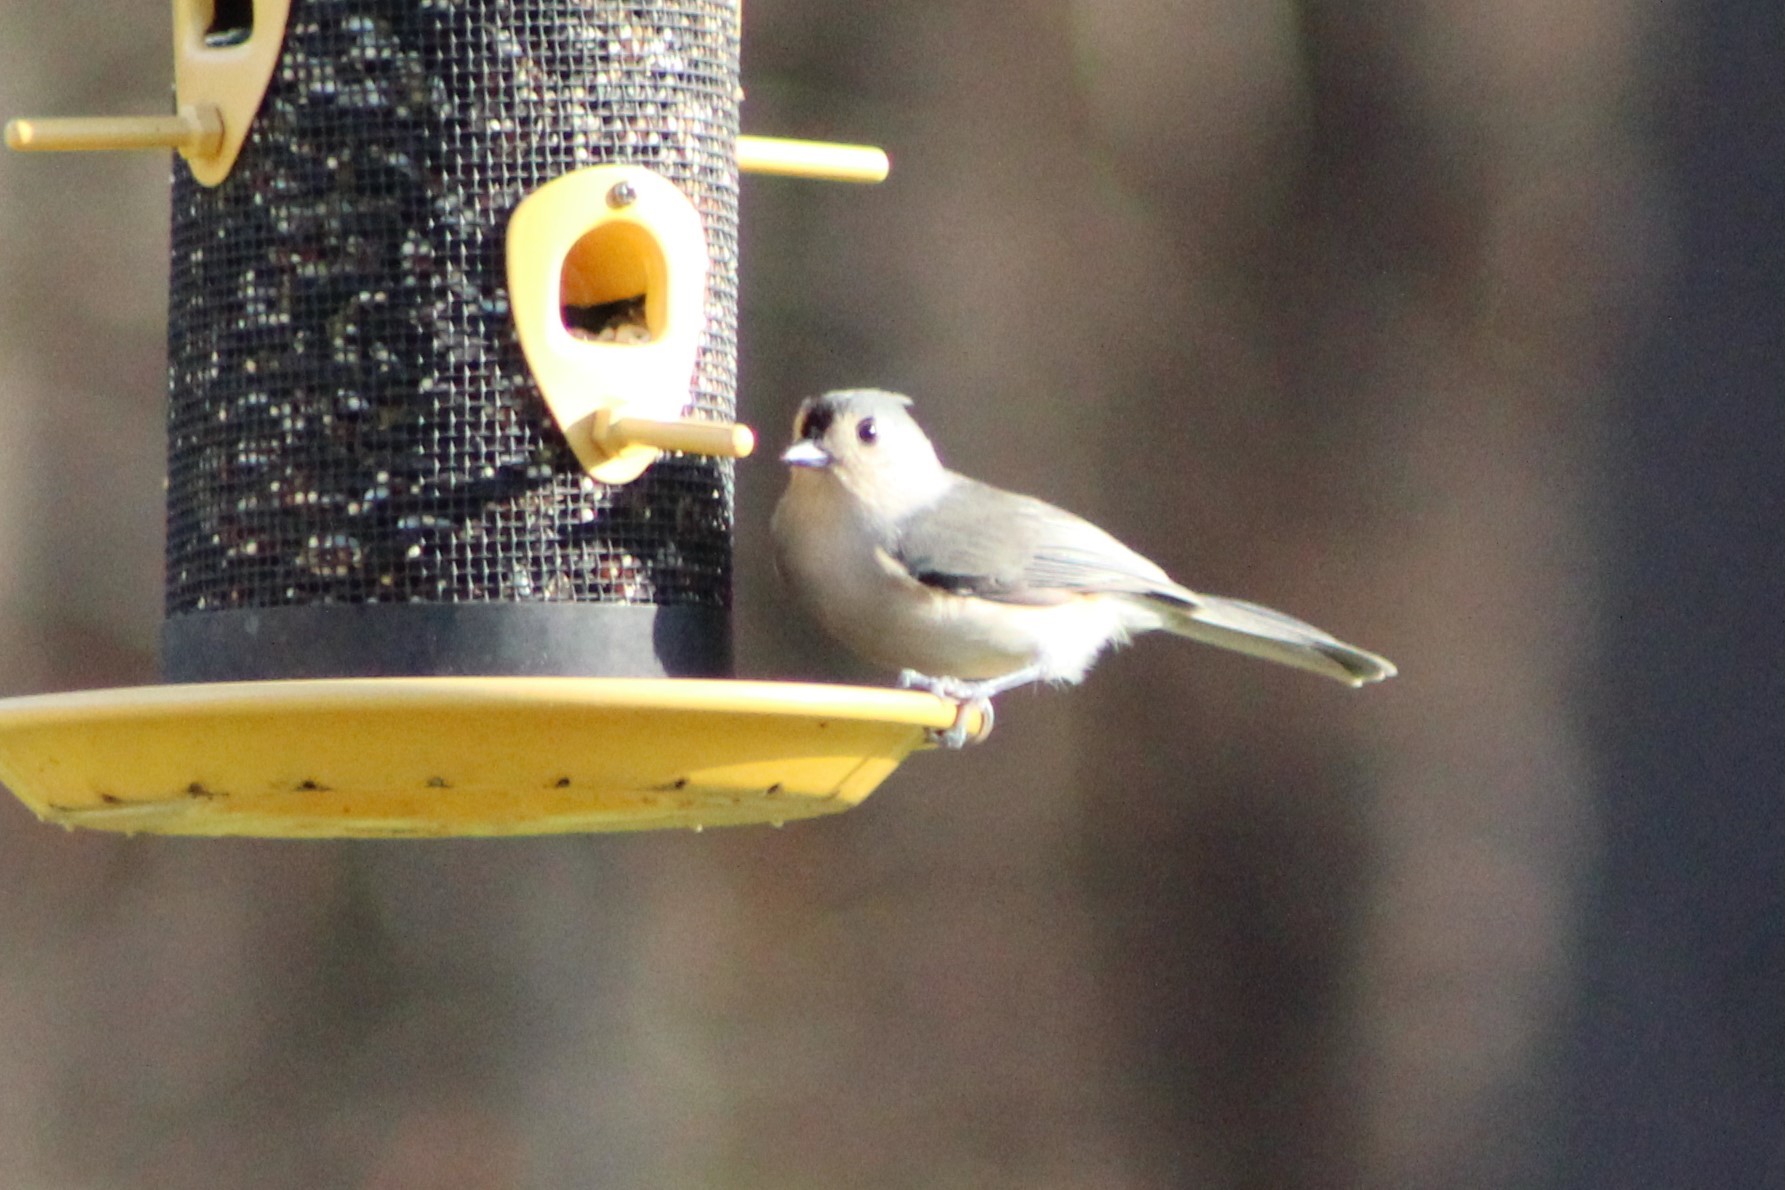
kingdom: Animalia
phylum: Chordata
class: Aves
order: Passeriformes
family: Paridae
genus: Baeolophus
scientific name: Baeolophus bicolor
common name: Tufted titmouse
